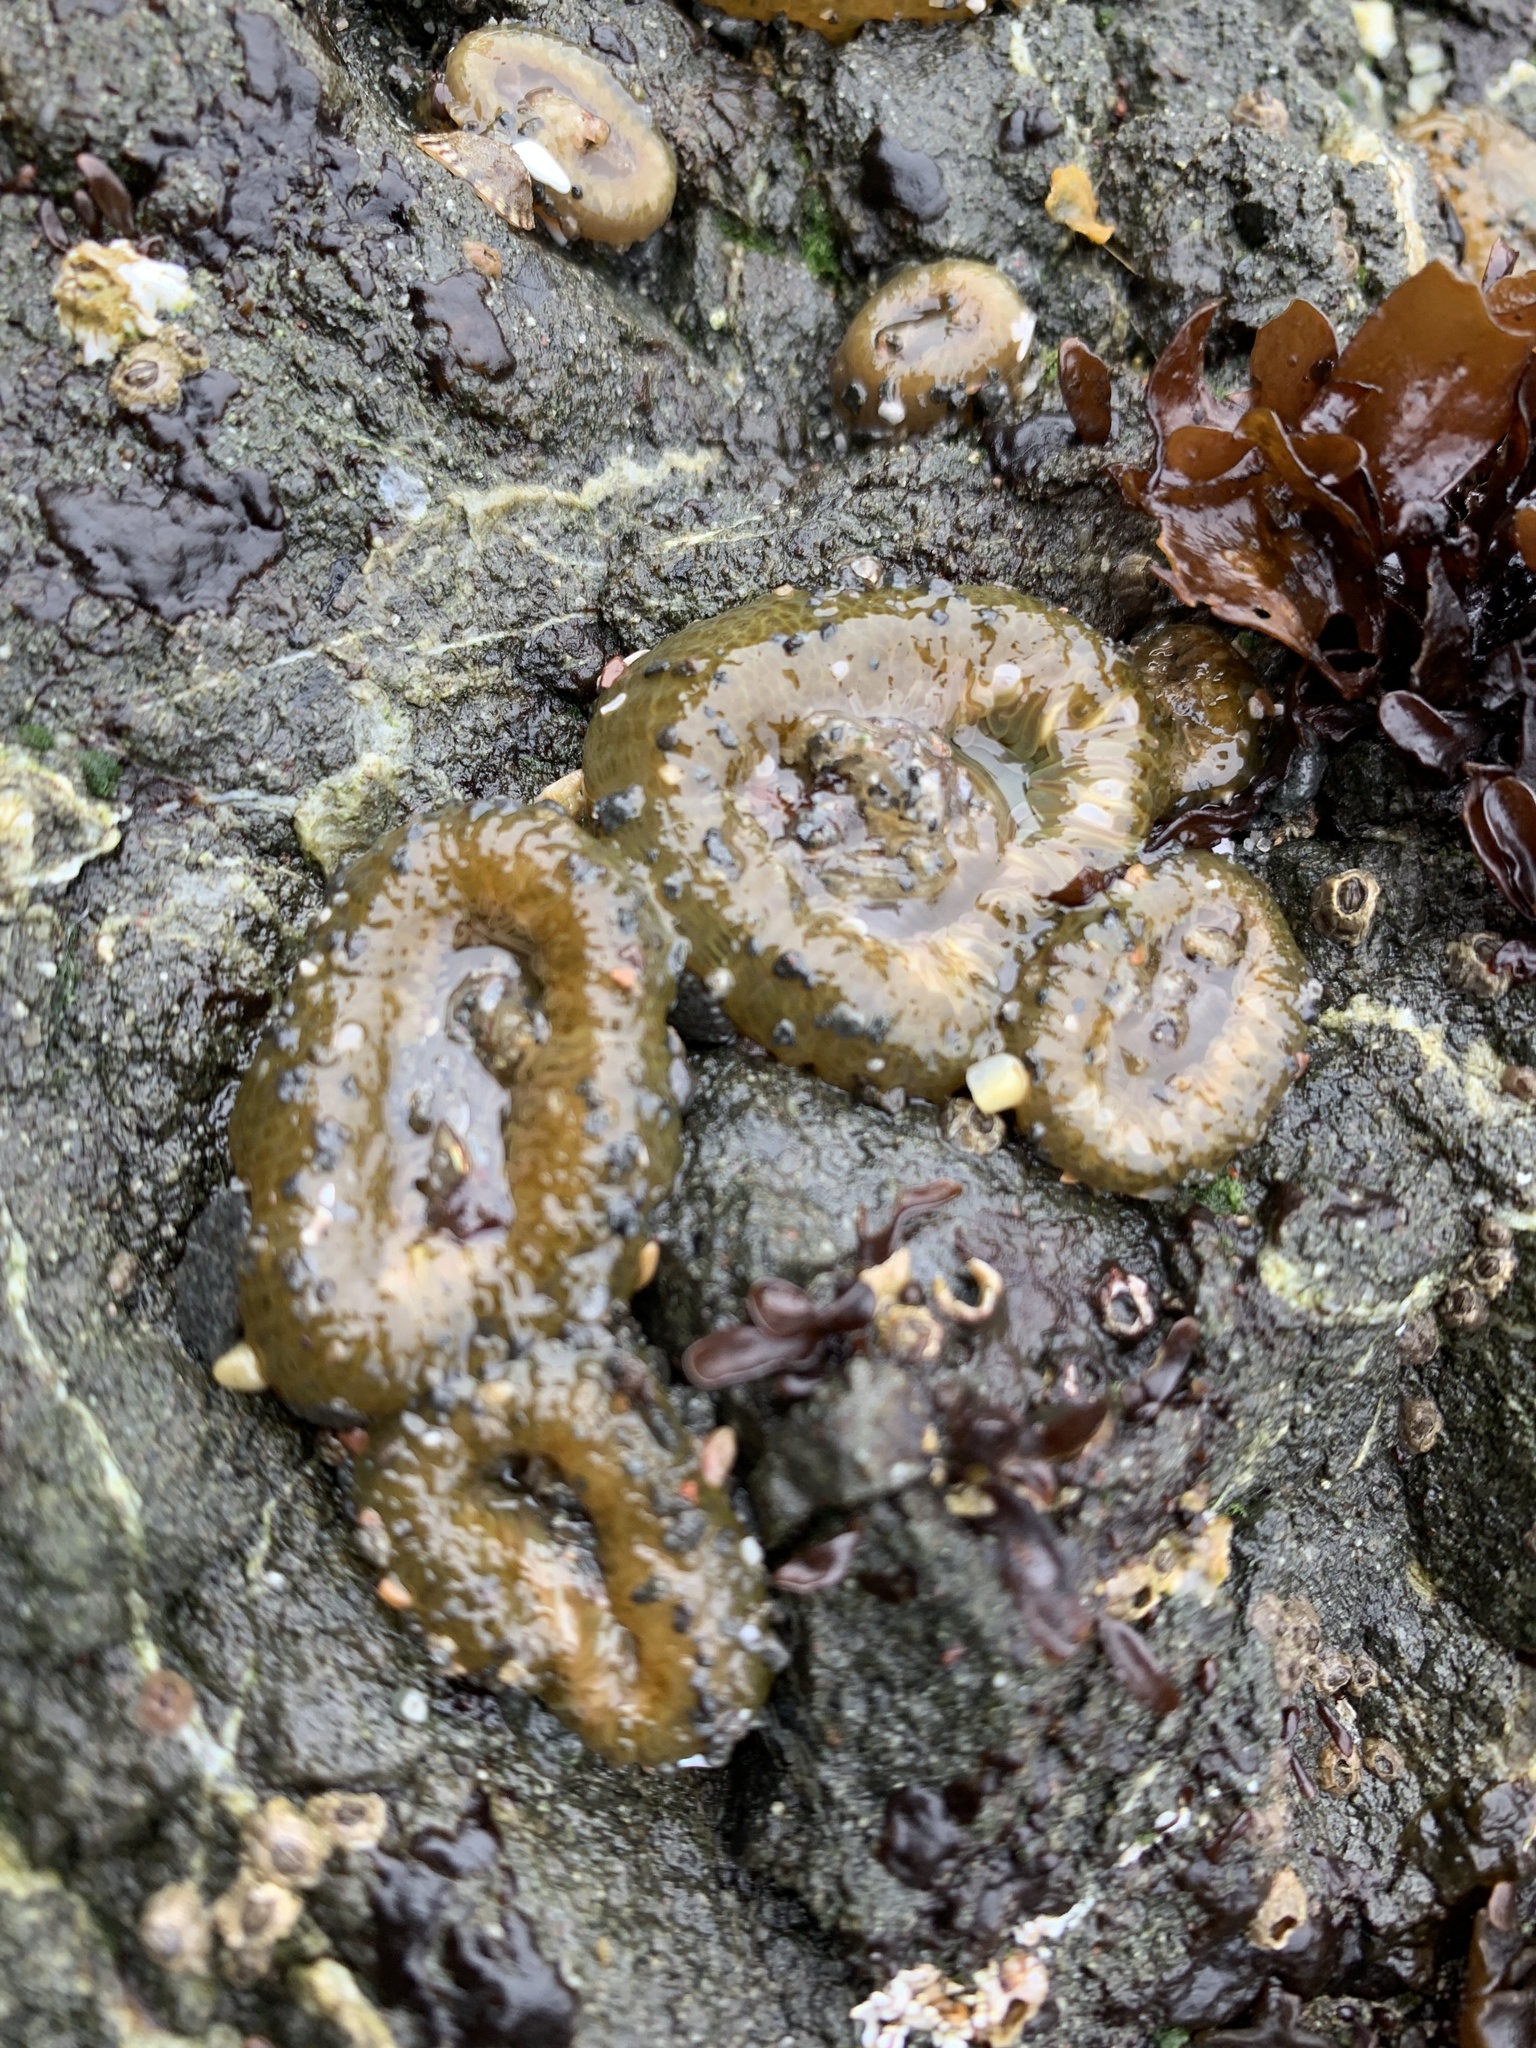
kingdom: Animalia
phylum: Cnidaria
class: Anthozoa
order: Actiniaria
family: Actiniidae
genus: Anthopleura
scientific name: Anthopleura elegantissima
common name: Clonal anemone
